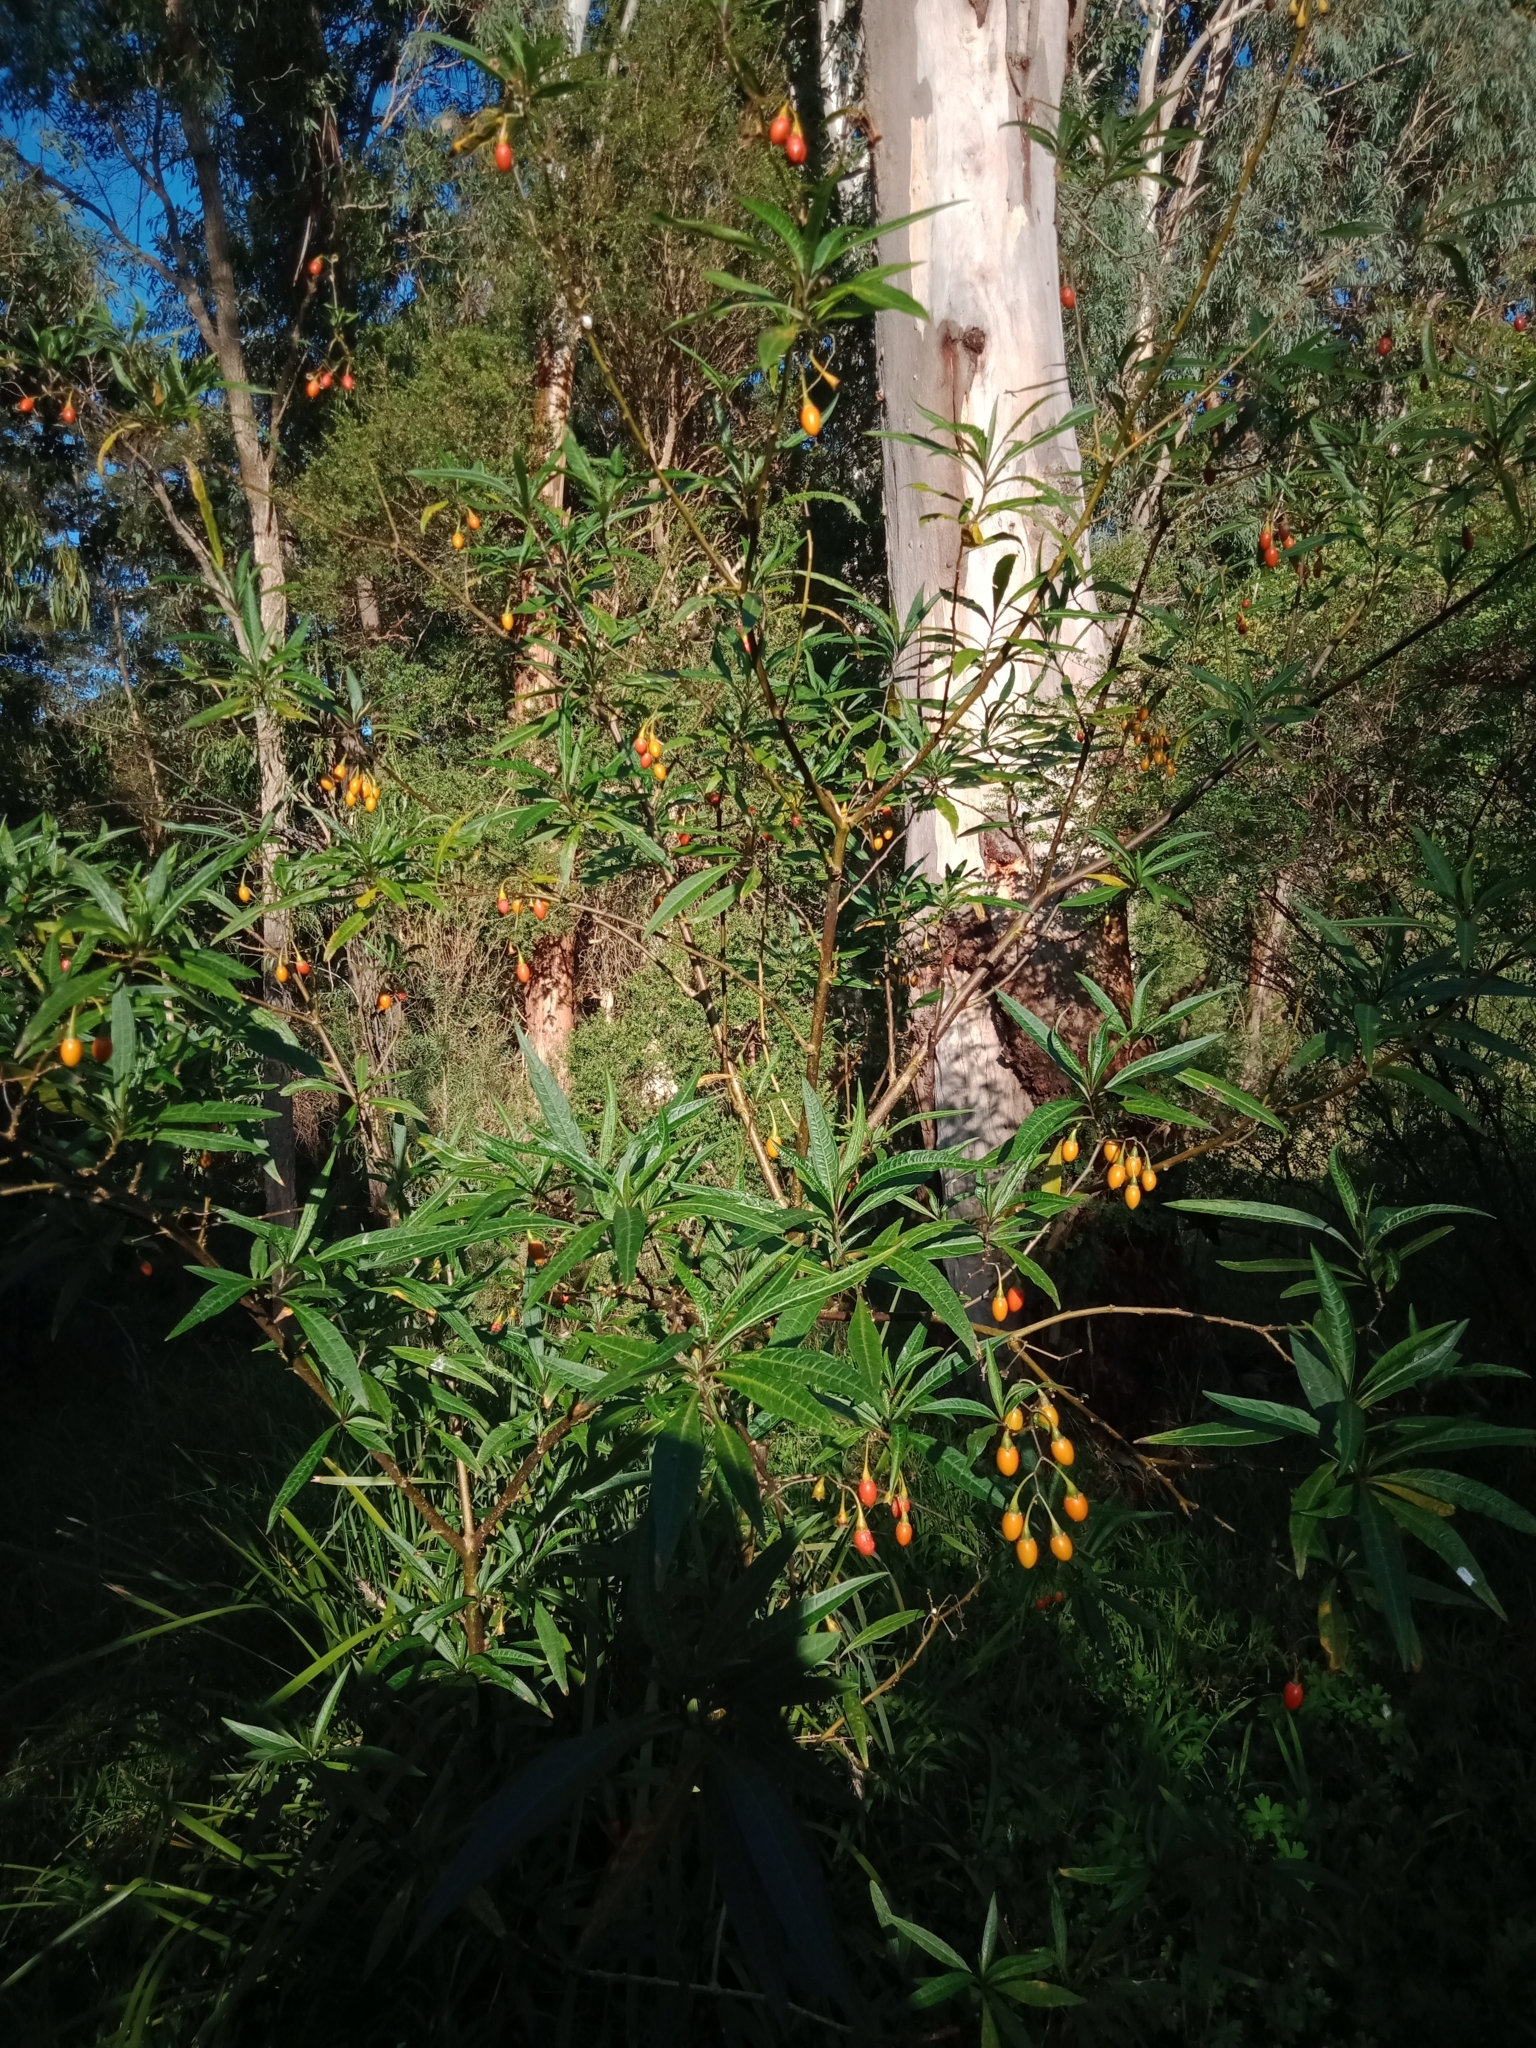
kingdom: Plantae
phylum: Tracheophyta
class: Magnoliopsida
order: Solanales
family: Solanaceae
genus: Solanum
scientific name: Solanum aviculare
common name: New zealand nightshade
